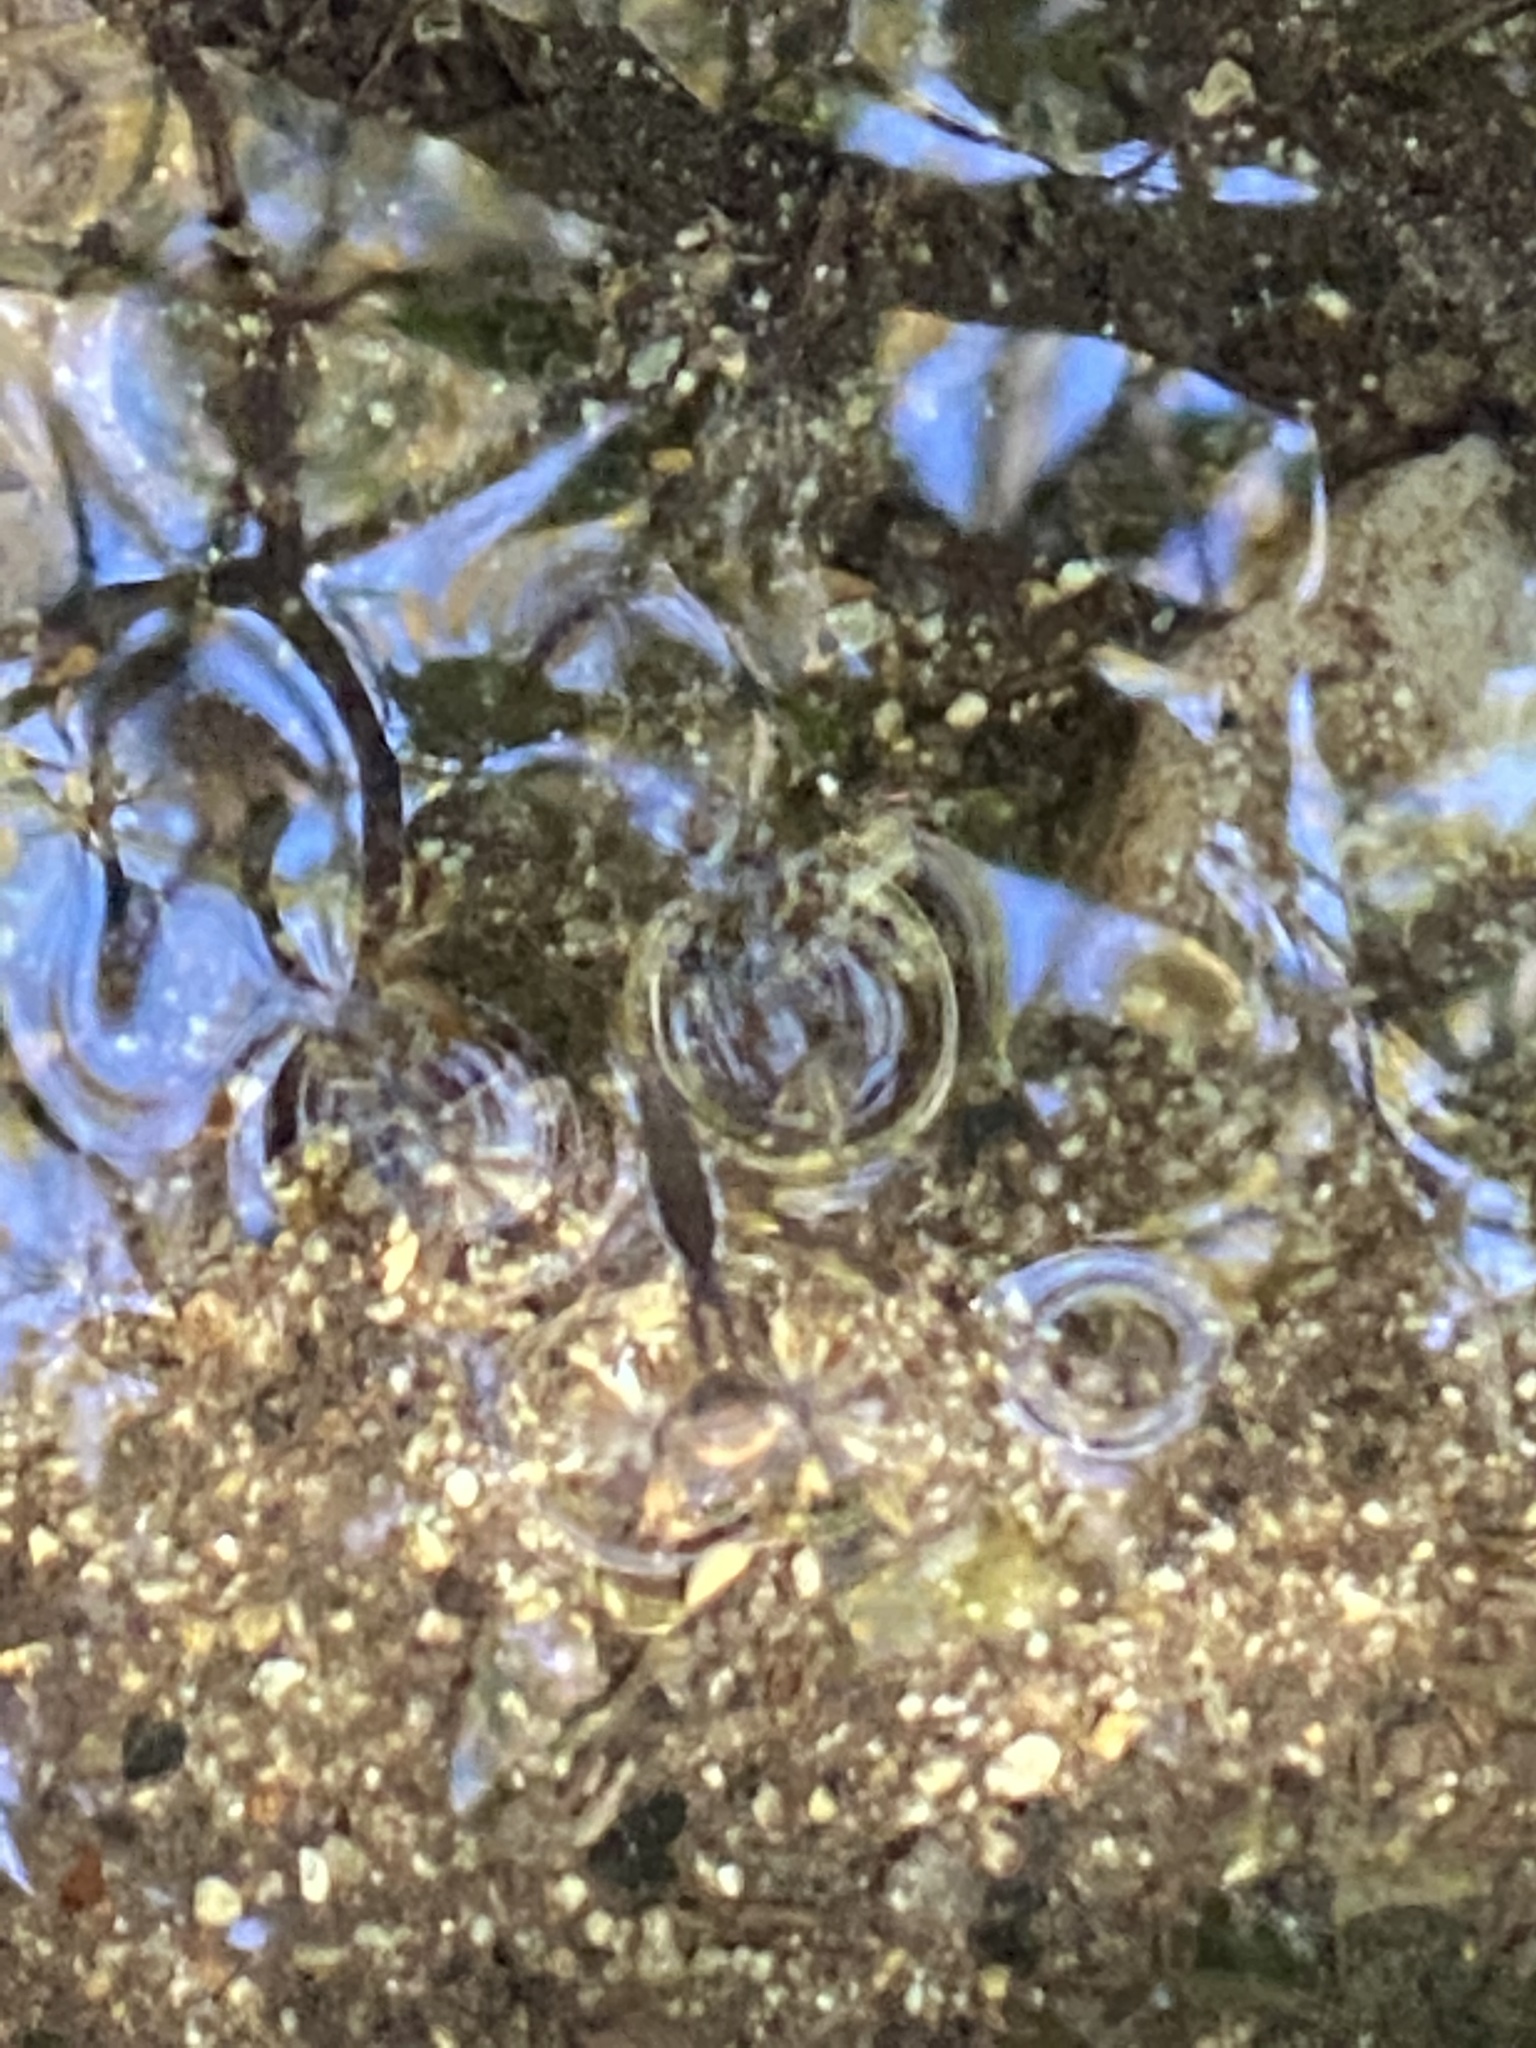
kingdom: Animalia
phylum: Arthropoda
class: Insecta
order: Hemiptera
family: Gerridae
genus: Aquarius
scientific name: Aquarius
